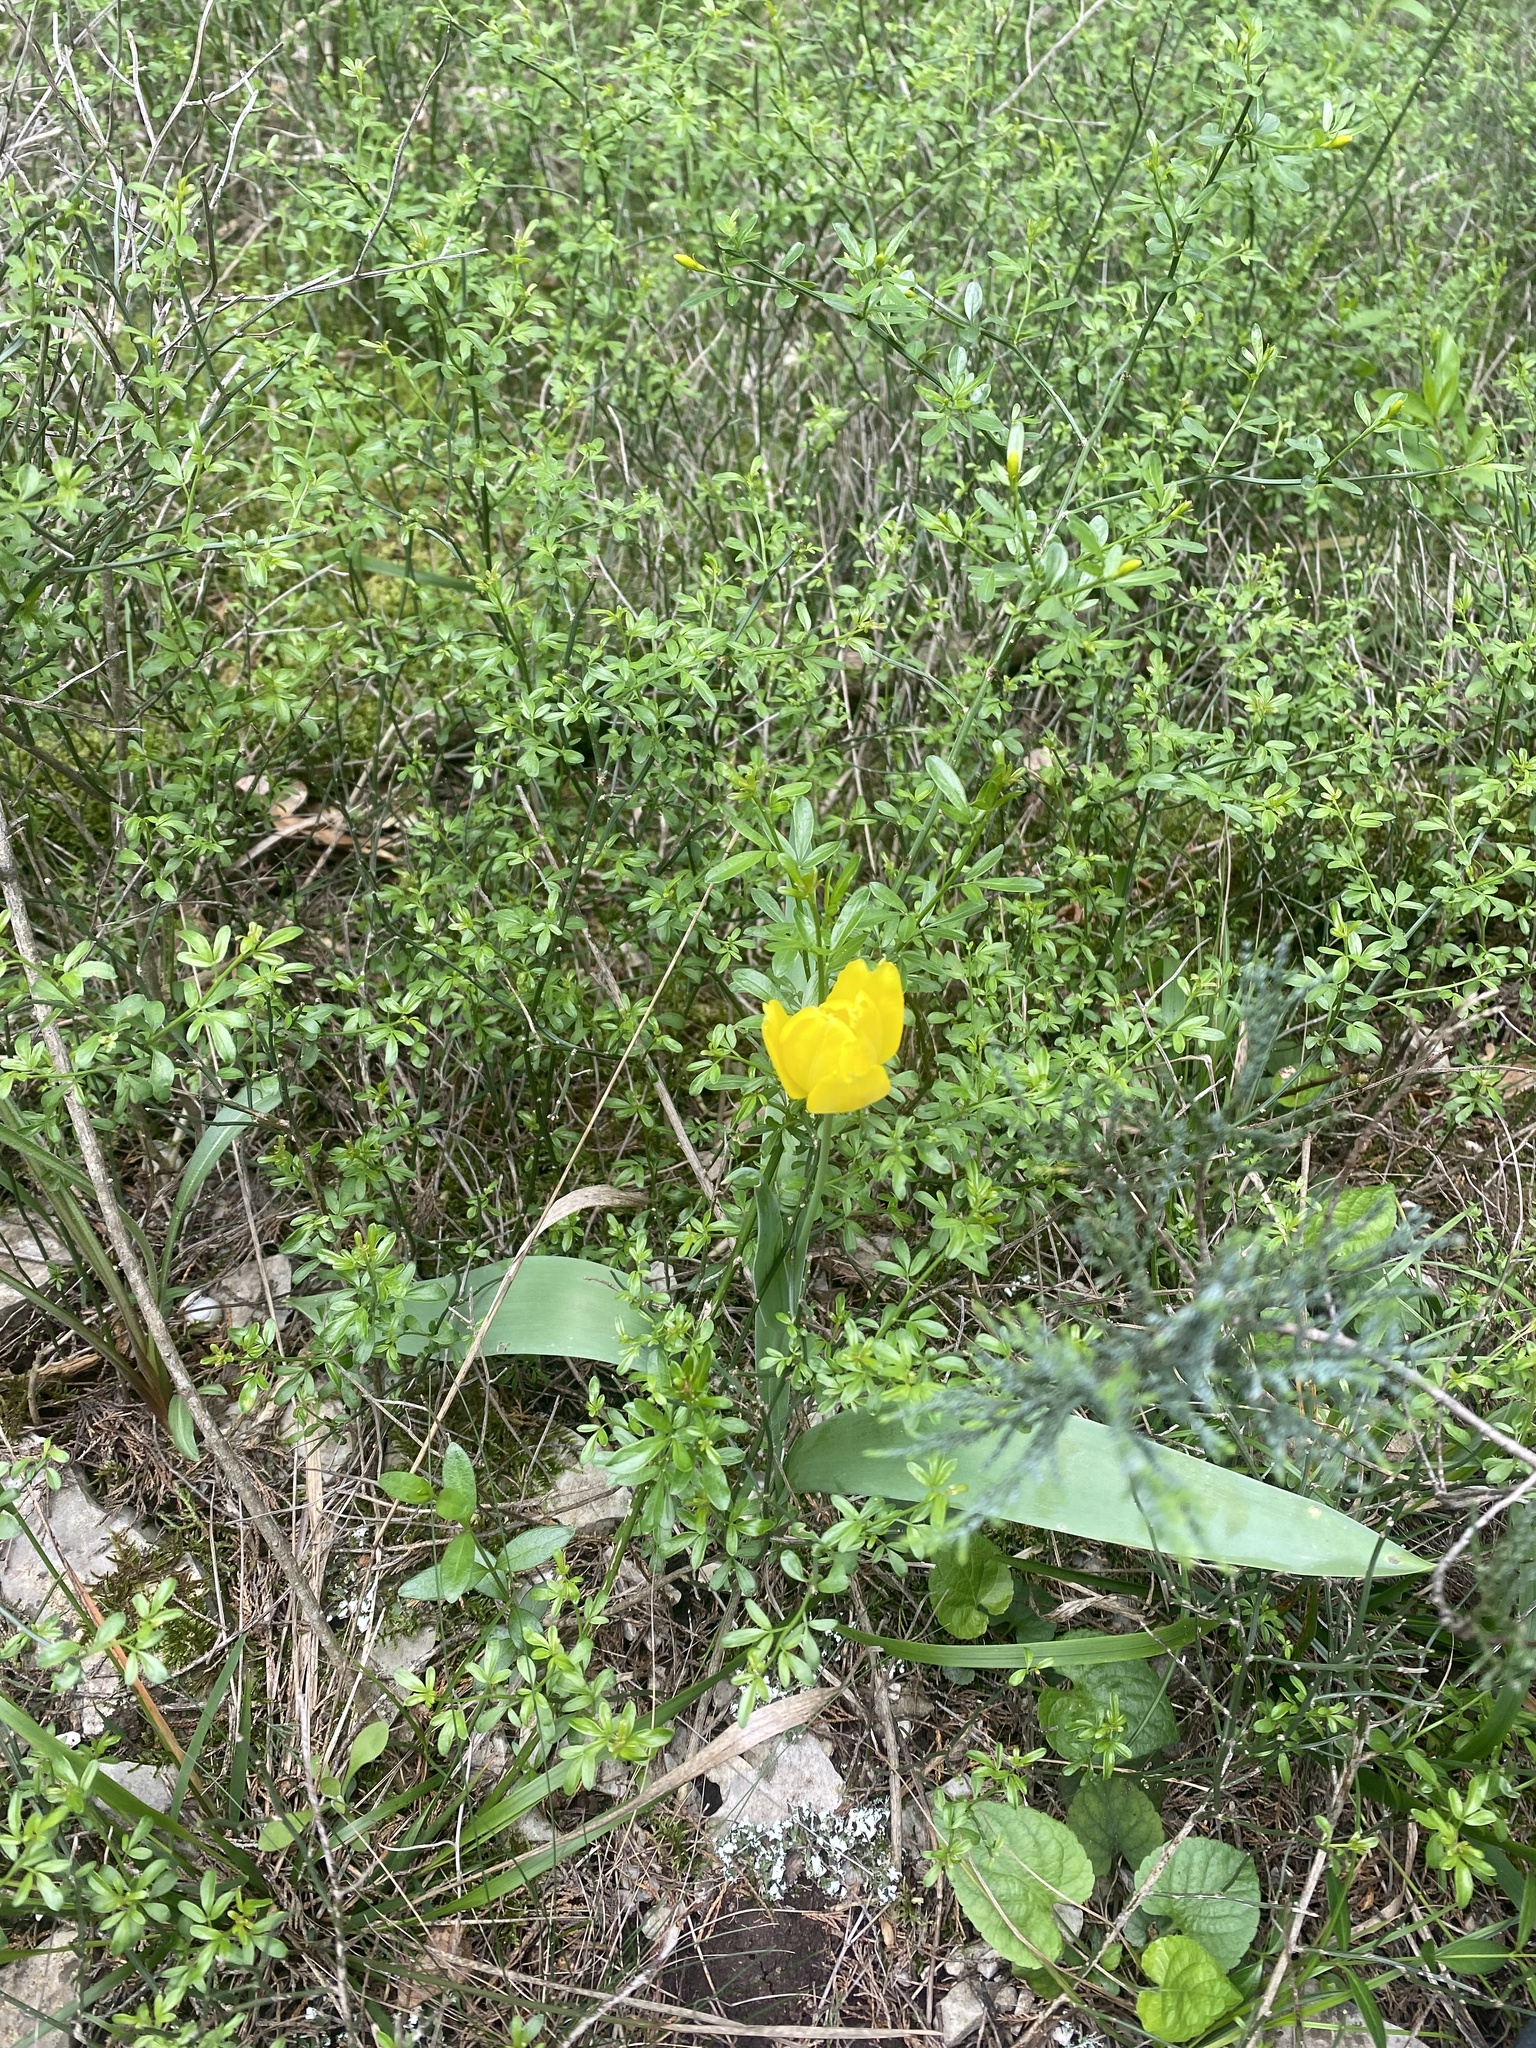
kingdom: Plantae
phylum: Tracheophyta
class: Liliopsida
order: Liliales
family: Liliaceae
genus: Tulipa
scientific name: Tulipa suaveolens
